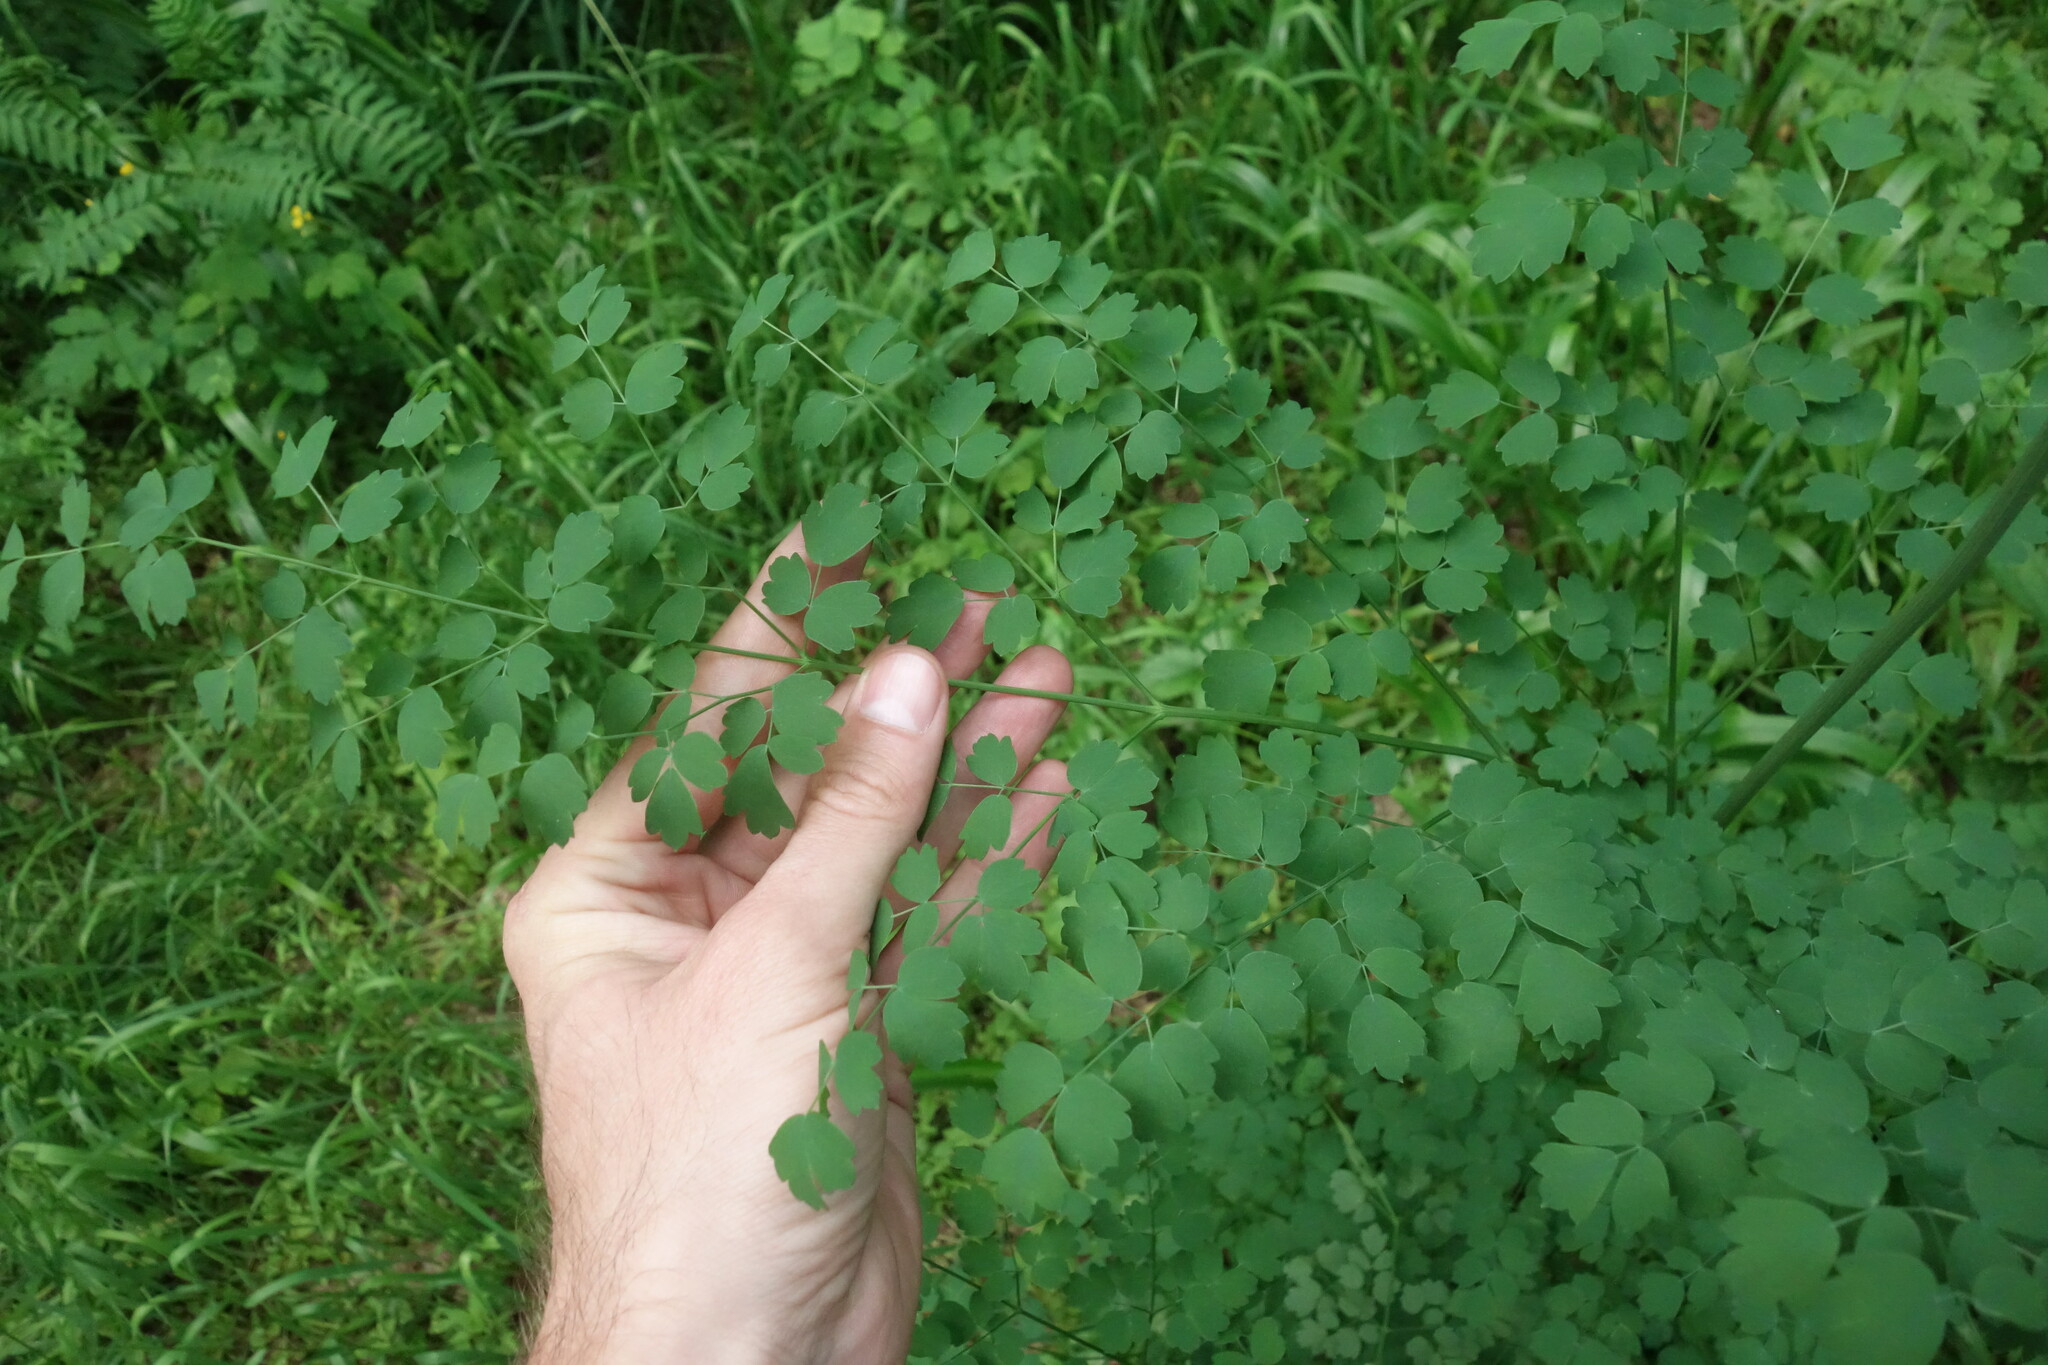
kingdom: Plantae
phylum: Tracheophyta
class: Magnoliopsida
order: Ranunculales
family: Ranunculaceae
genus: Thalictrum
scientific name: Thalictrum minus
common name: Lesser meadow-rue
